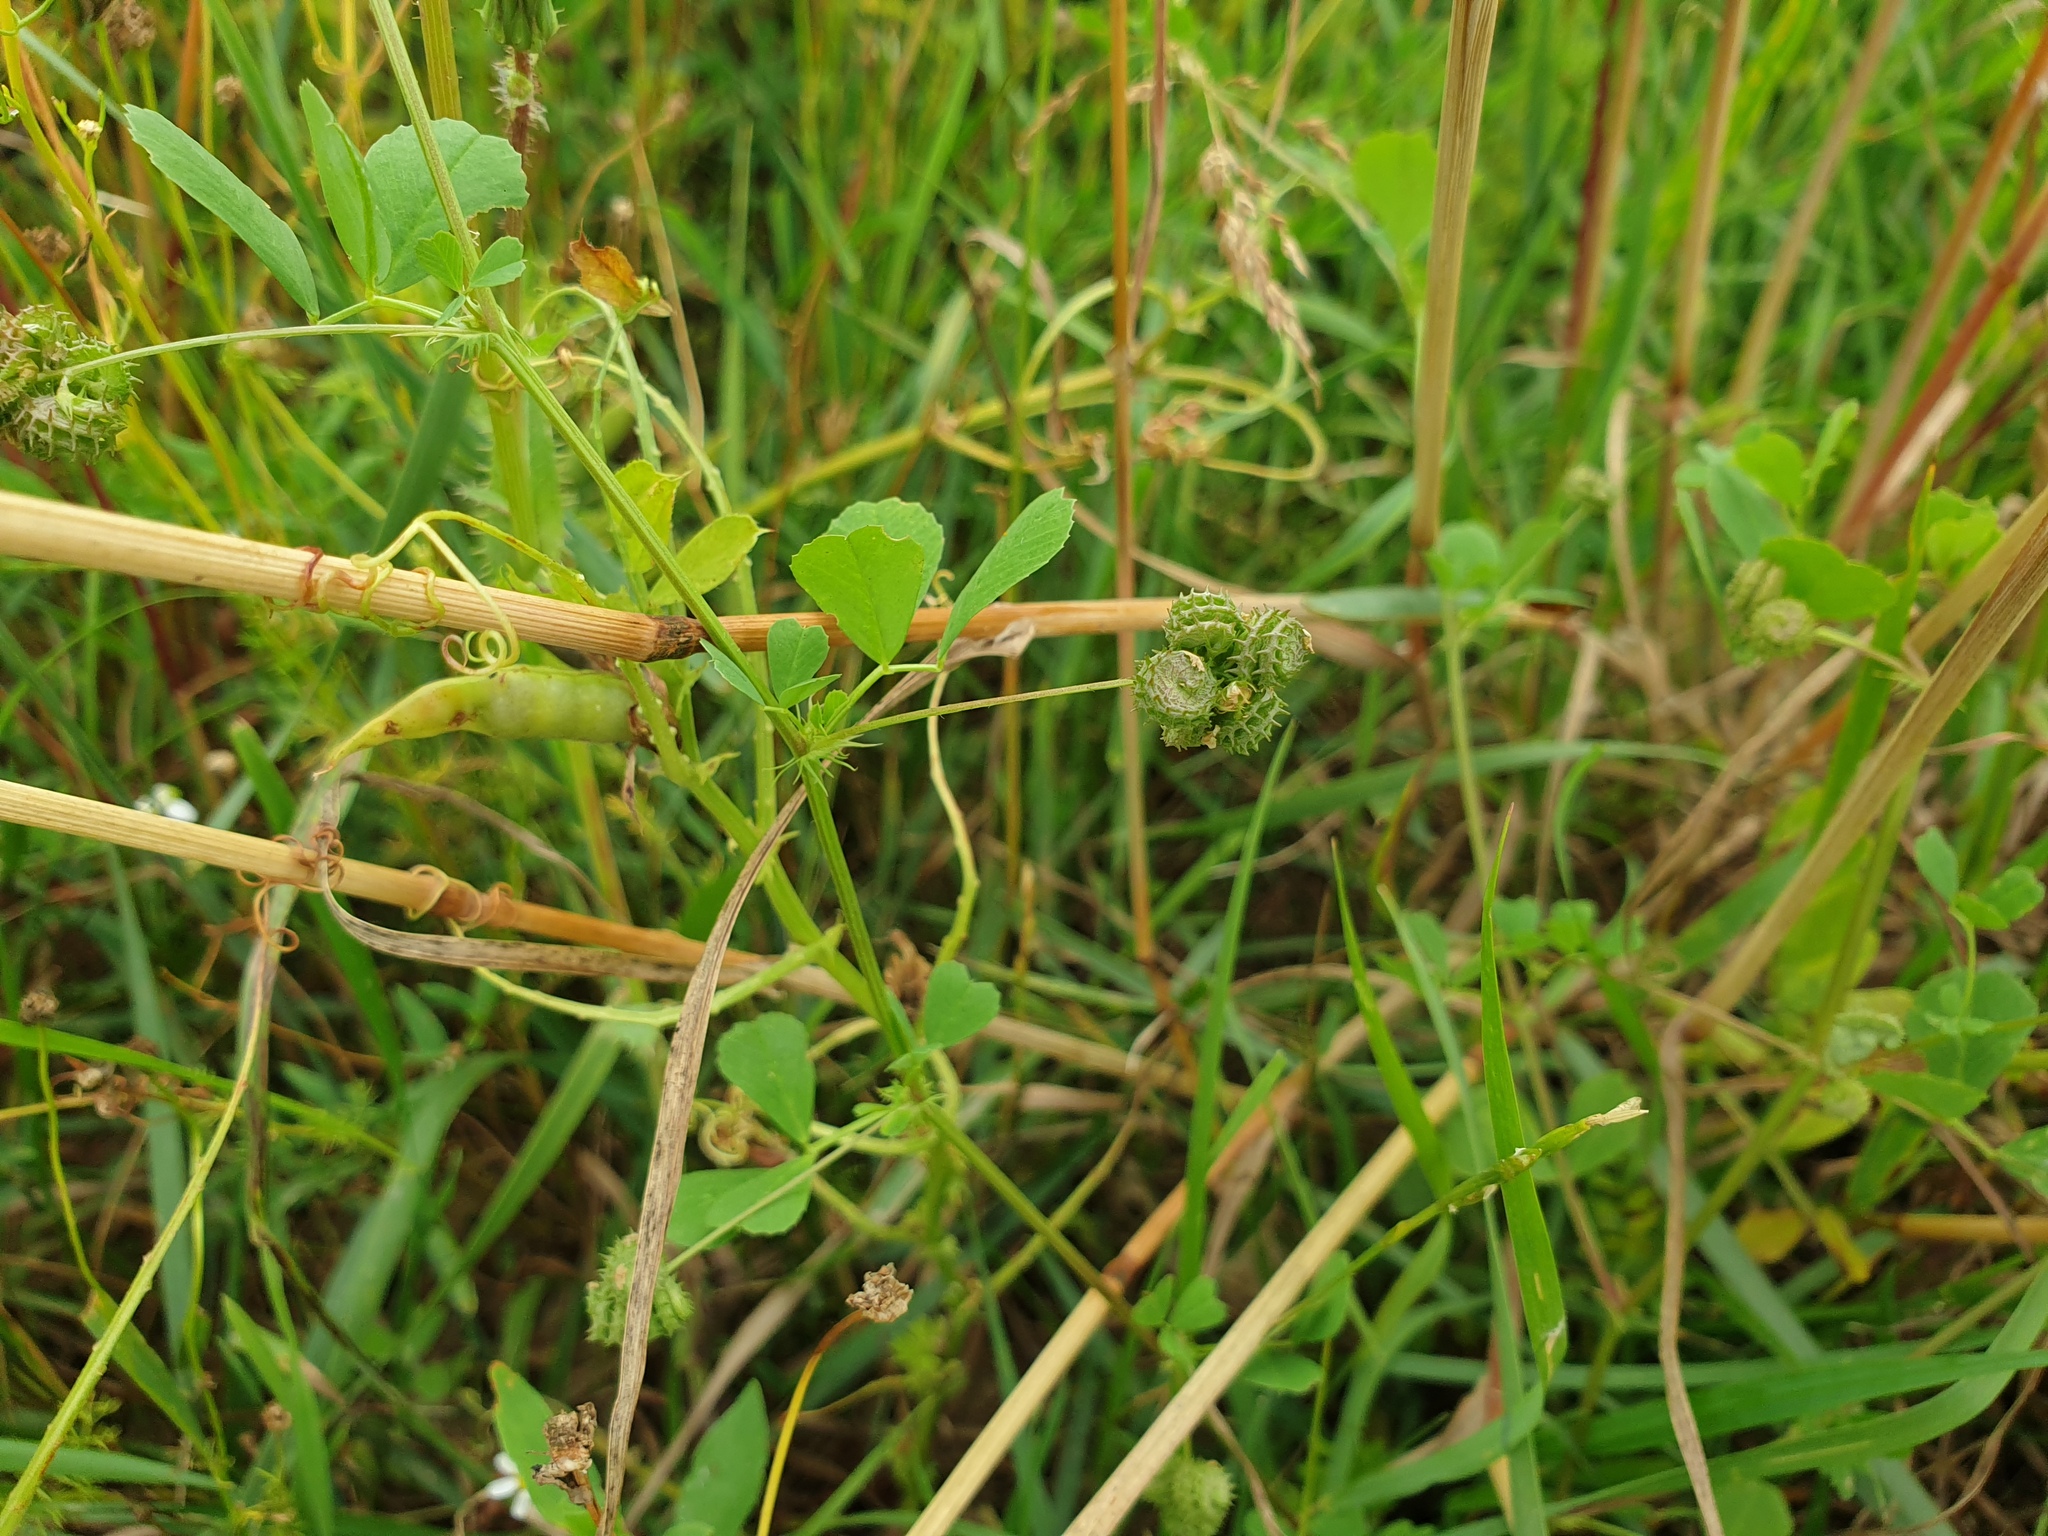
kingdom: Plantae
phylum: Tracheophyta
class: Magnoliopsida
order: Fabales
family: Fabaceae
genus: Medicago
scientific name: Medicago polymorpha
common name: Burclover
